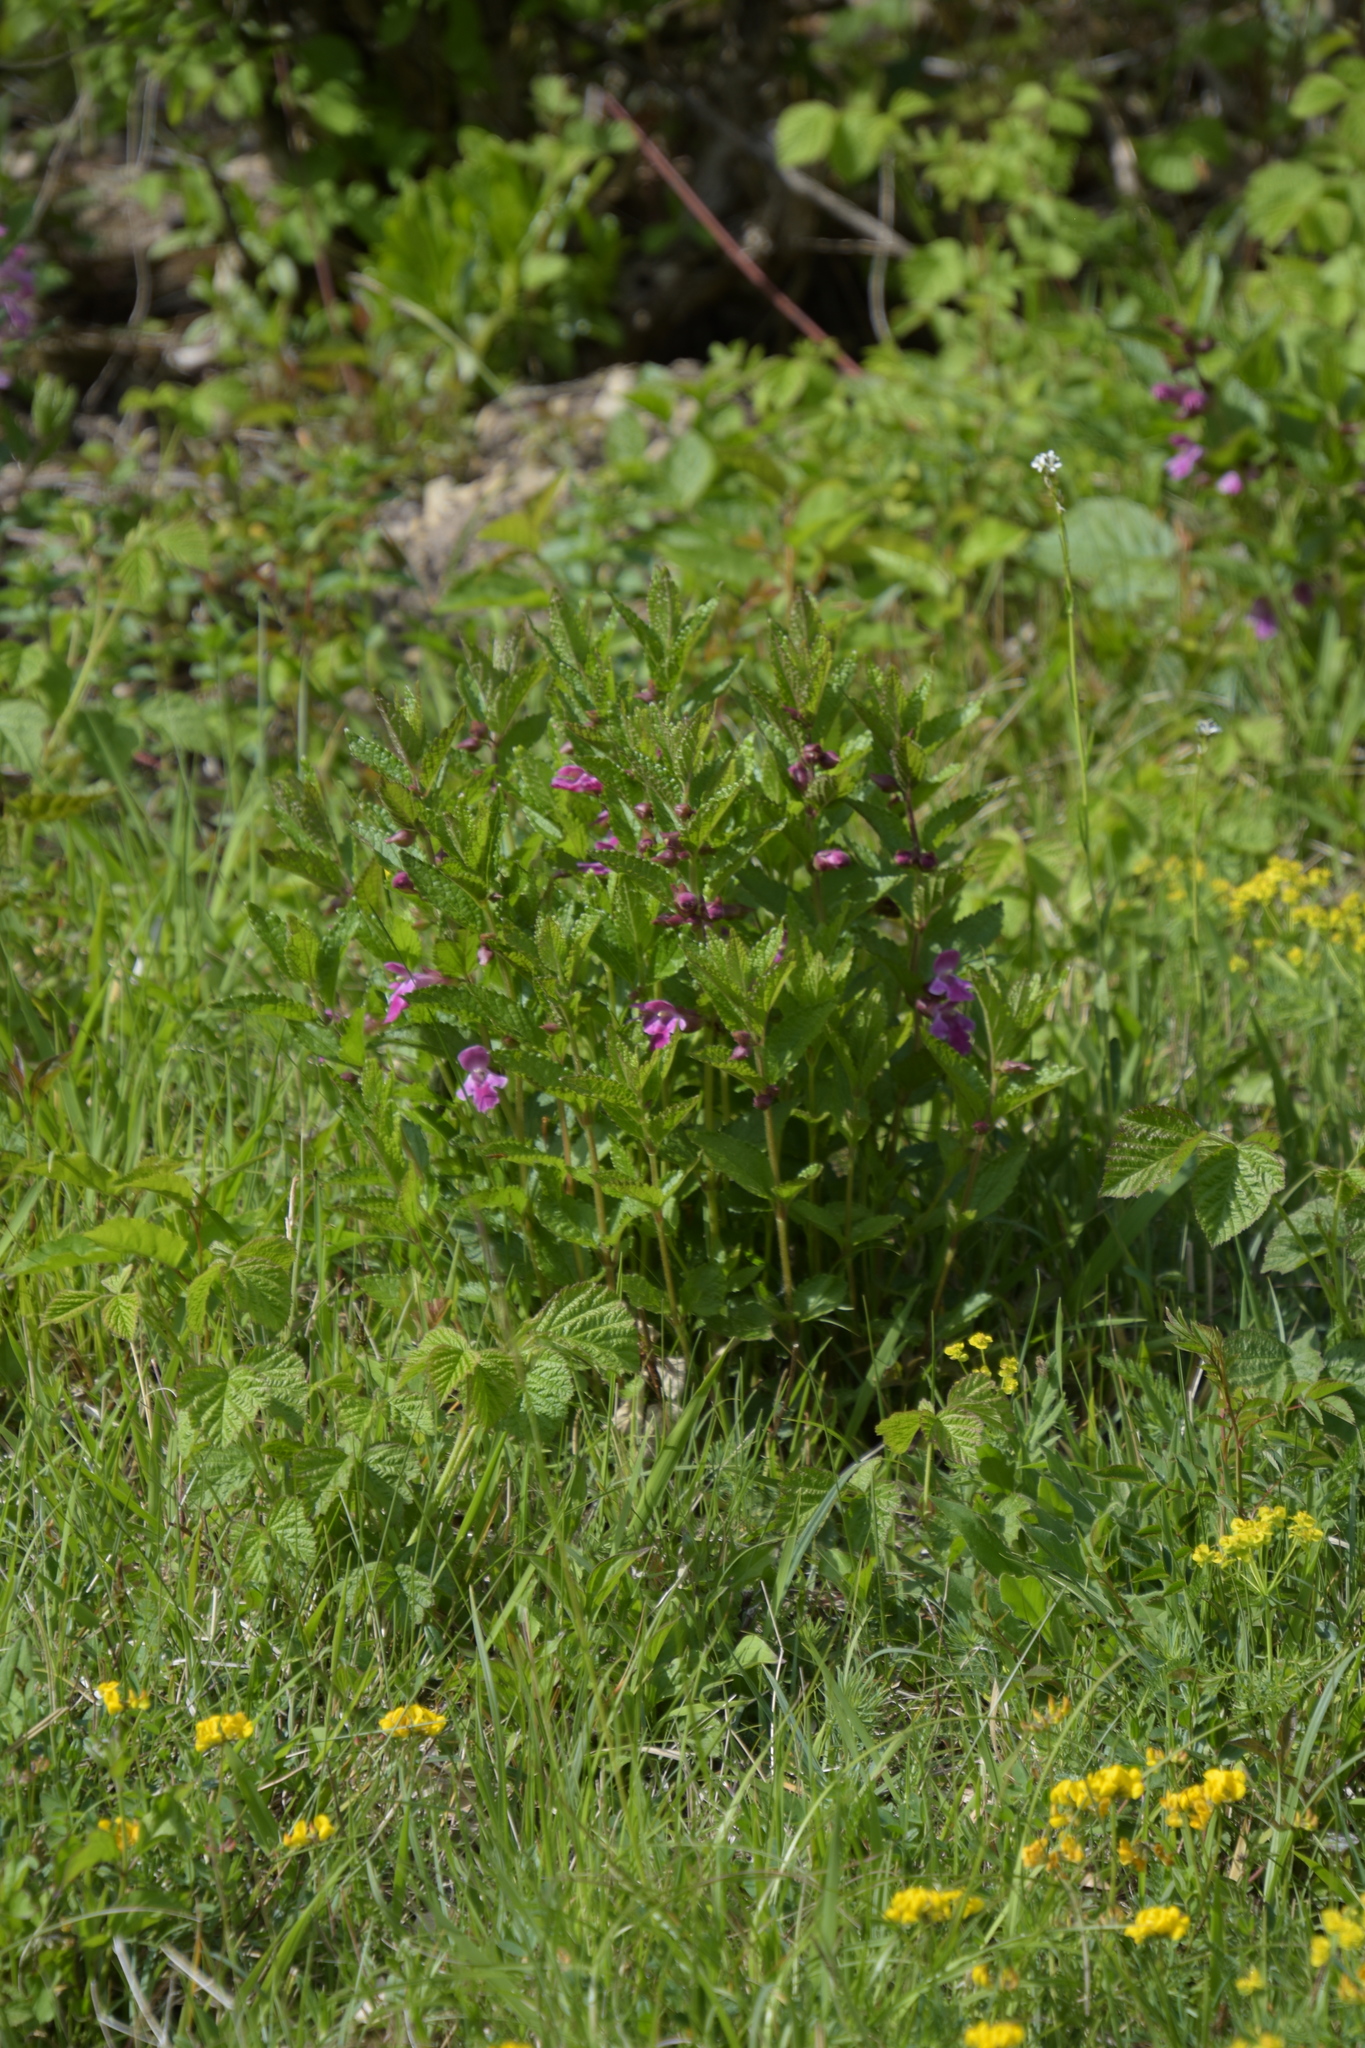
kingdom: Plantae
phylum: Tracheophyta
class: Magnoliopsida
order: Lamiales
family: Lamiaceae
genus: Melittis
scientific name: Melittis melissophyllum
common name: Bastard balm
